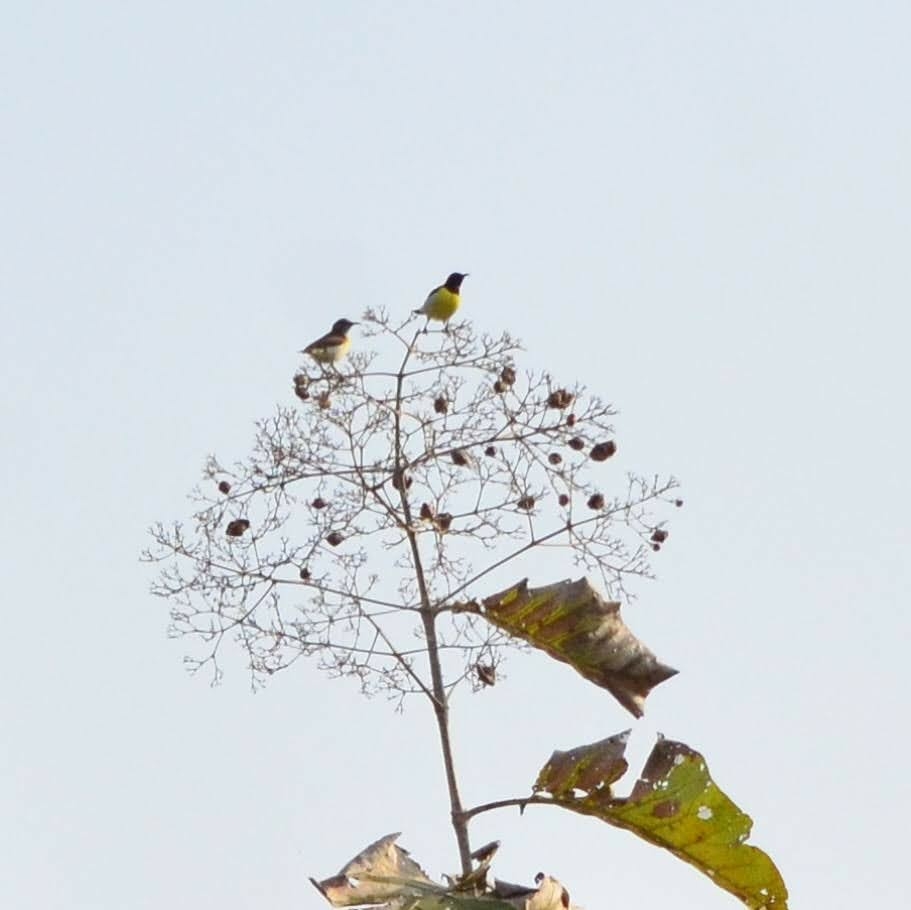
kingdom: Animalia
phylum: Chordata
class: Aves
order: Passeriformes
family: Nectariniidae
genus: Leptocoma
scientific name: Leptocoma zeylonica
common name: Purple-rumped sunbird
